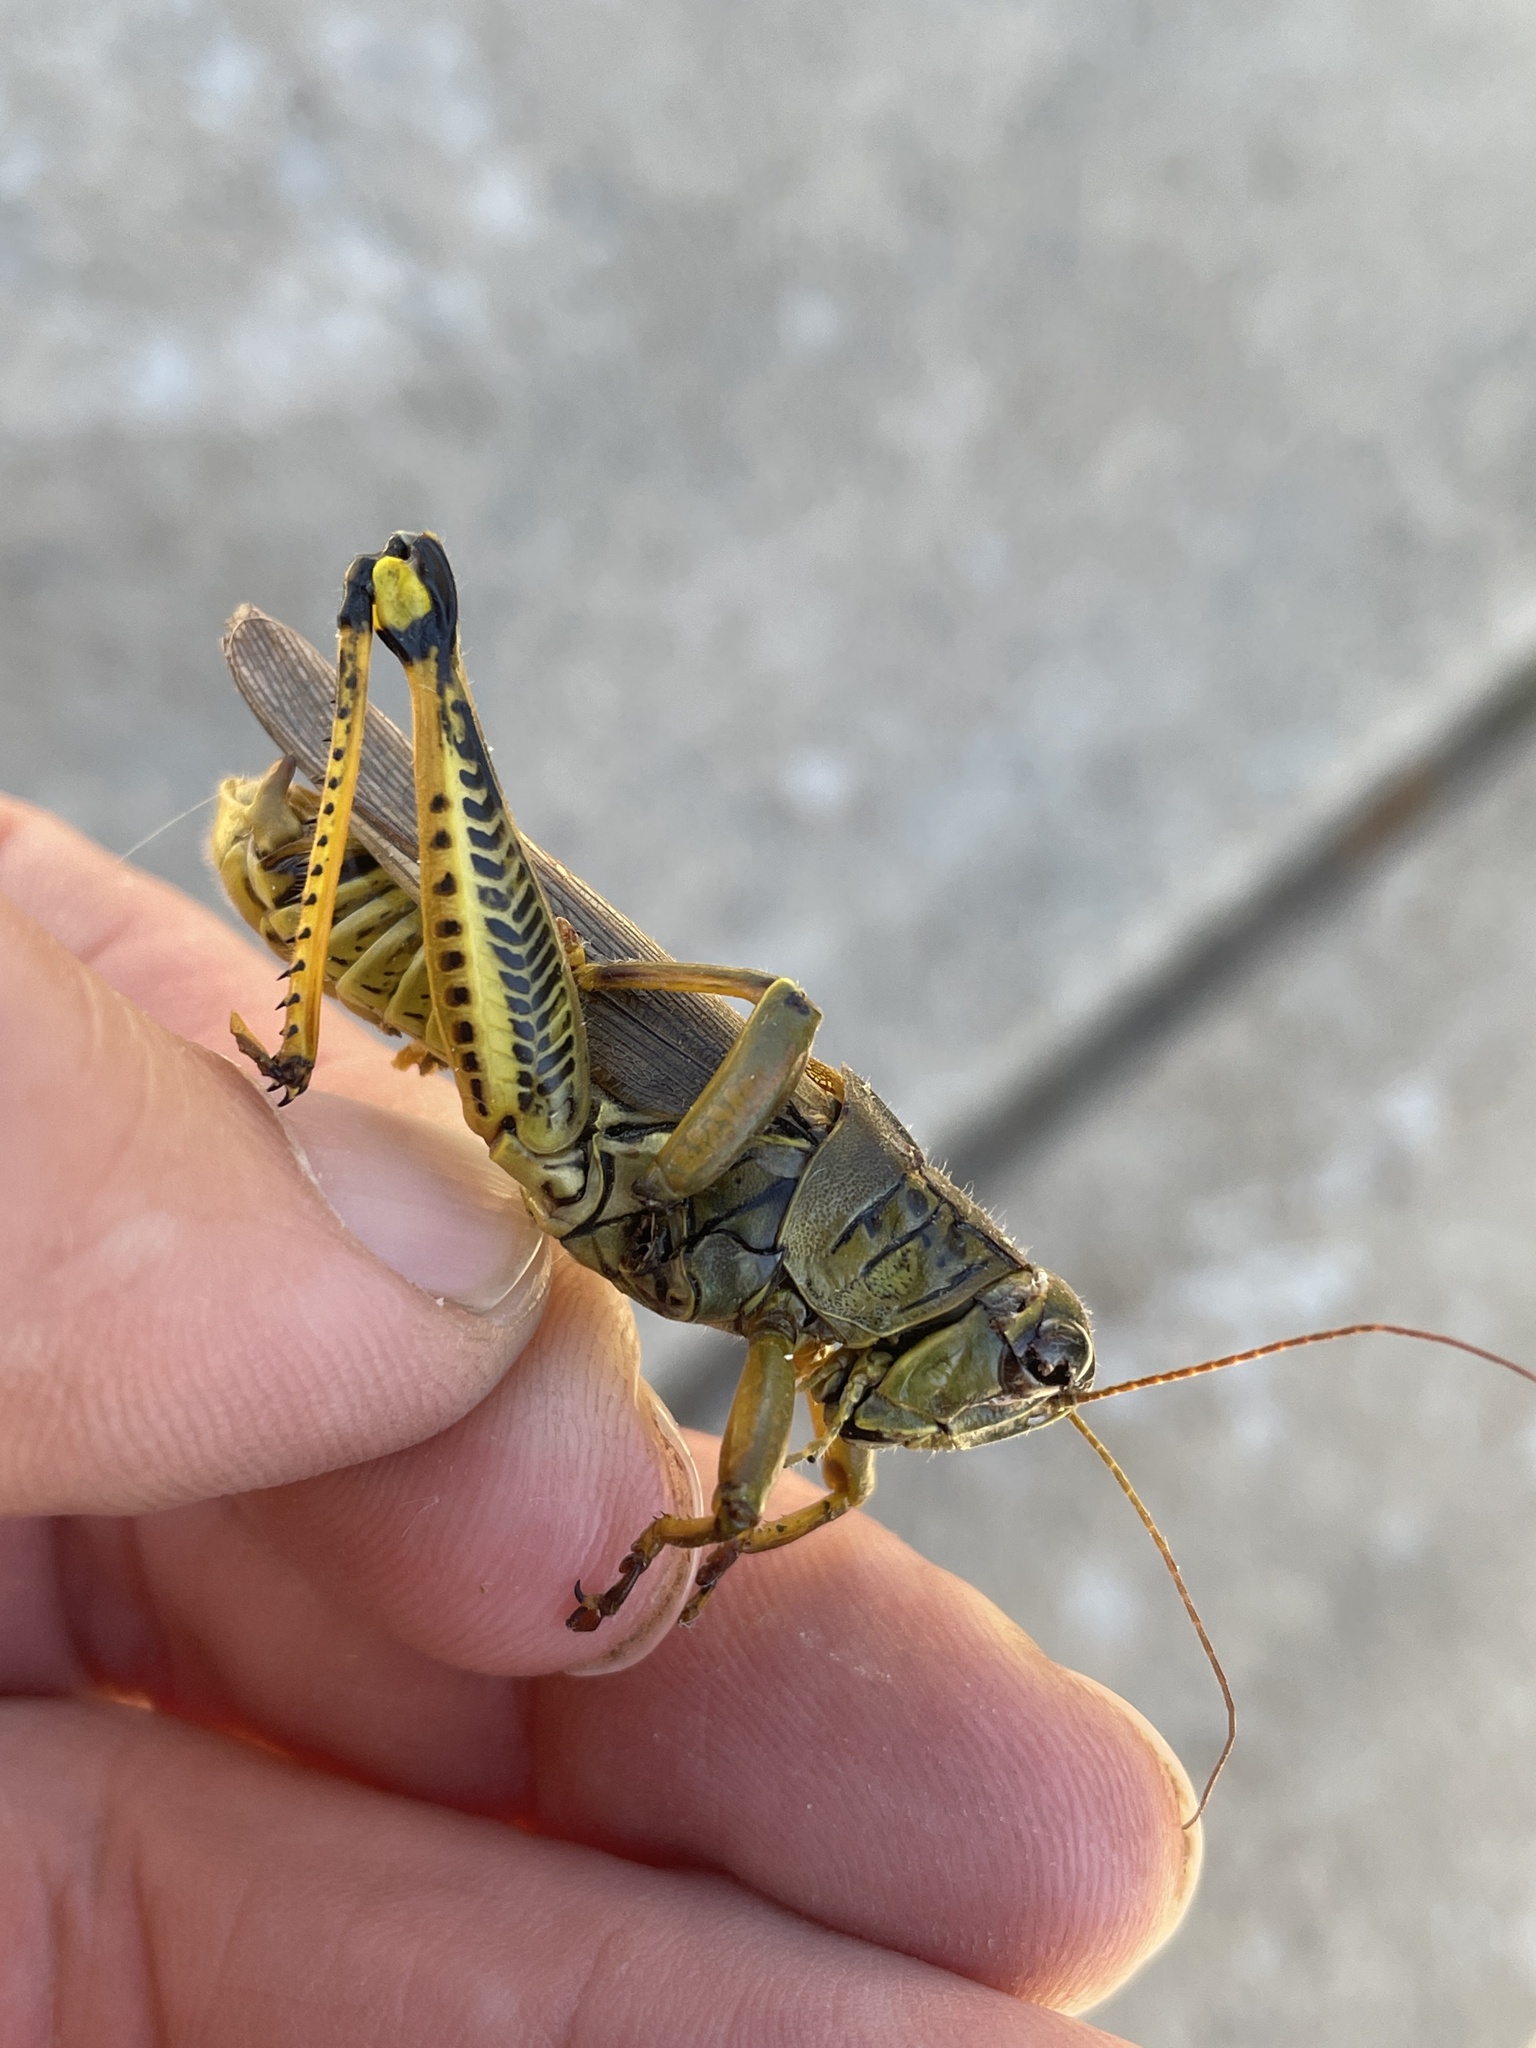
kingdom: Animalia
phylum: Arthropoda
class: Insecta
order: Orthoptera
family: Acrididae
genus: Melanoplus
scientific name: Melanoplus differentialis
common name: Differential grasshopper
